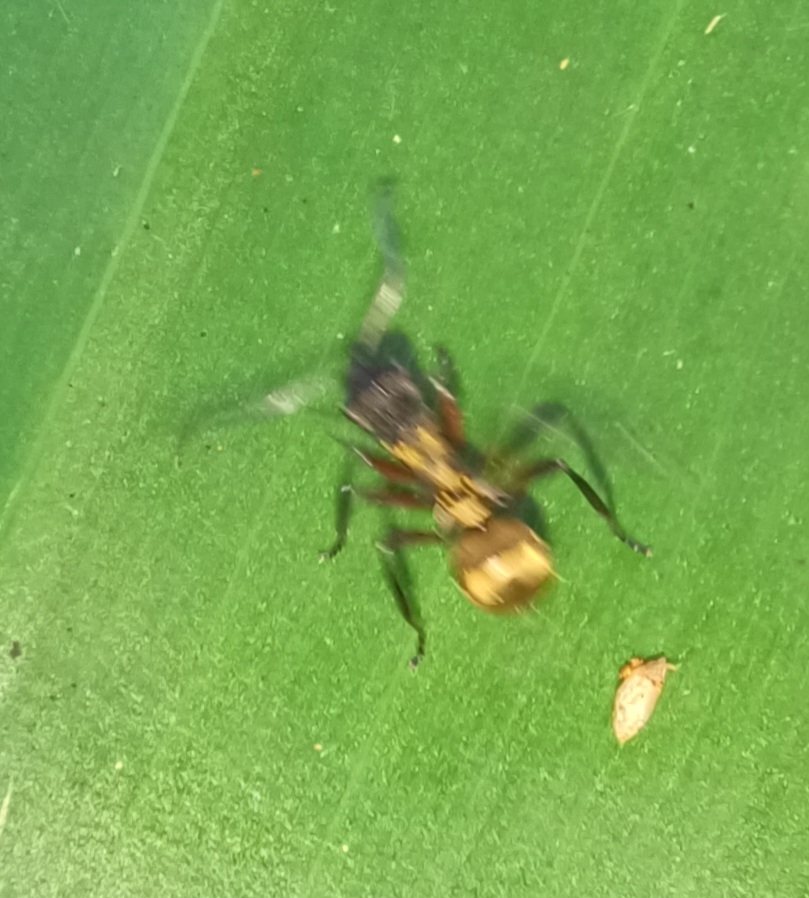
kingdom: Animalia
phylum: Arthropoda
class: Insecta
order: Hymenoptera
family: Formicidae
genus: Polyrhachis
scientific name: Polyrhachis rufifemur
